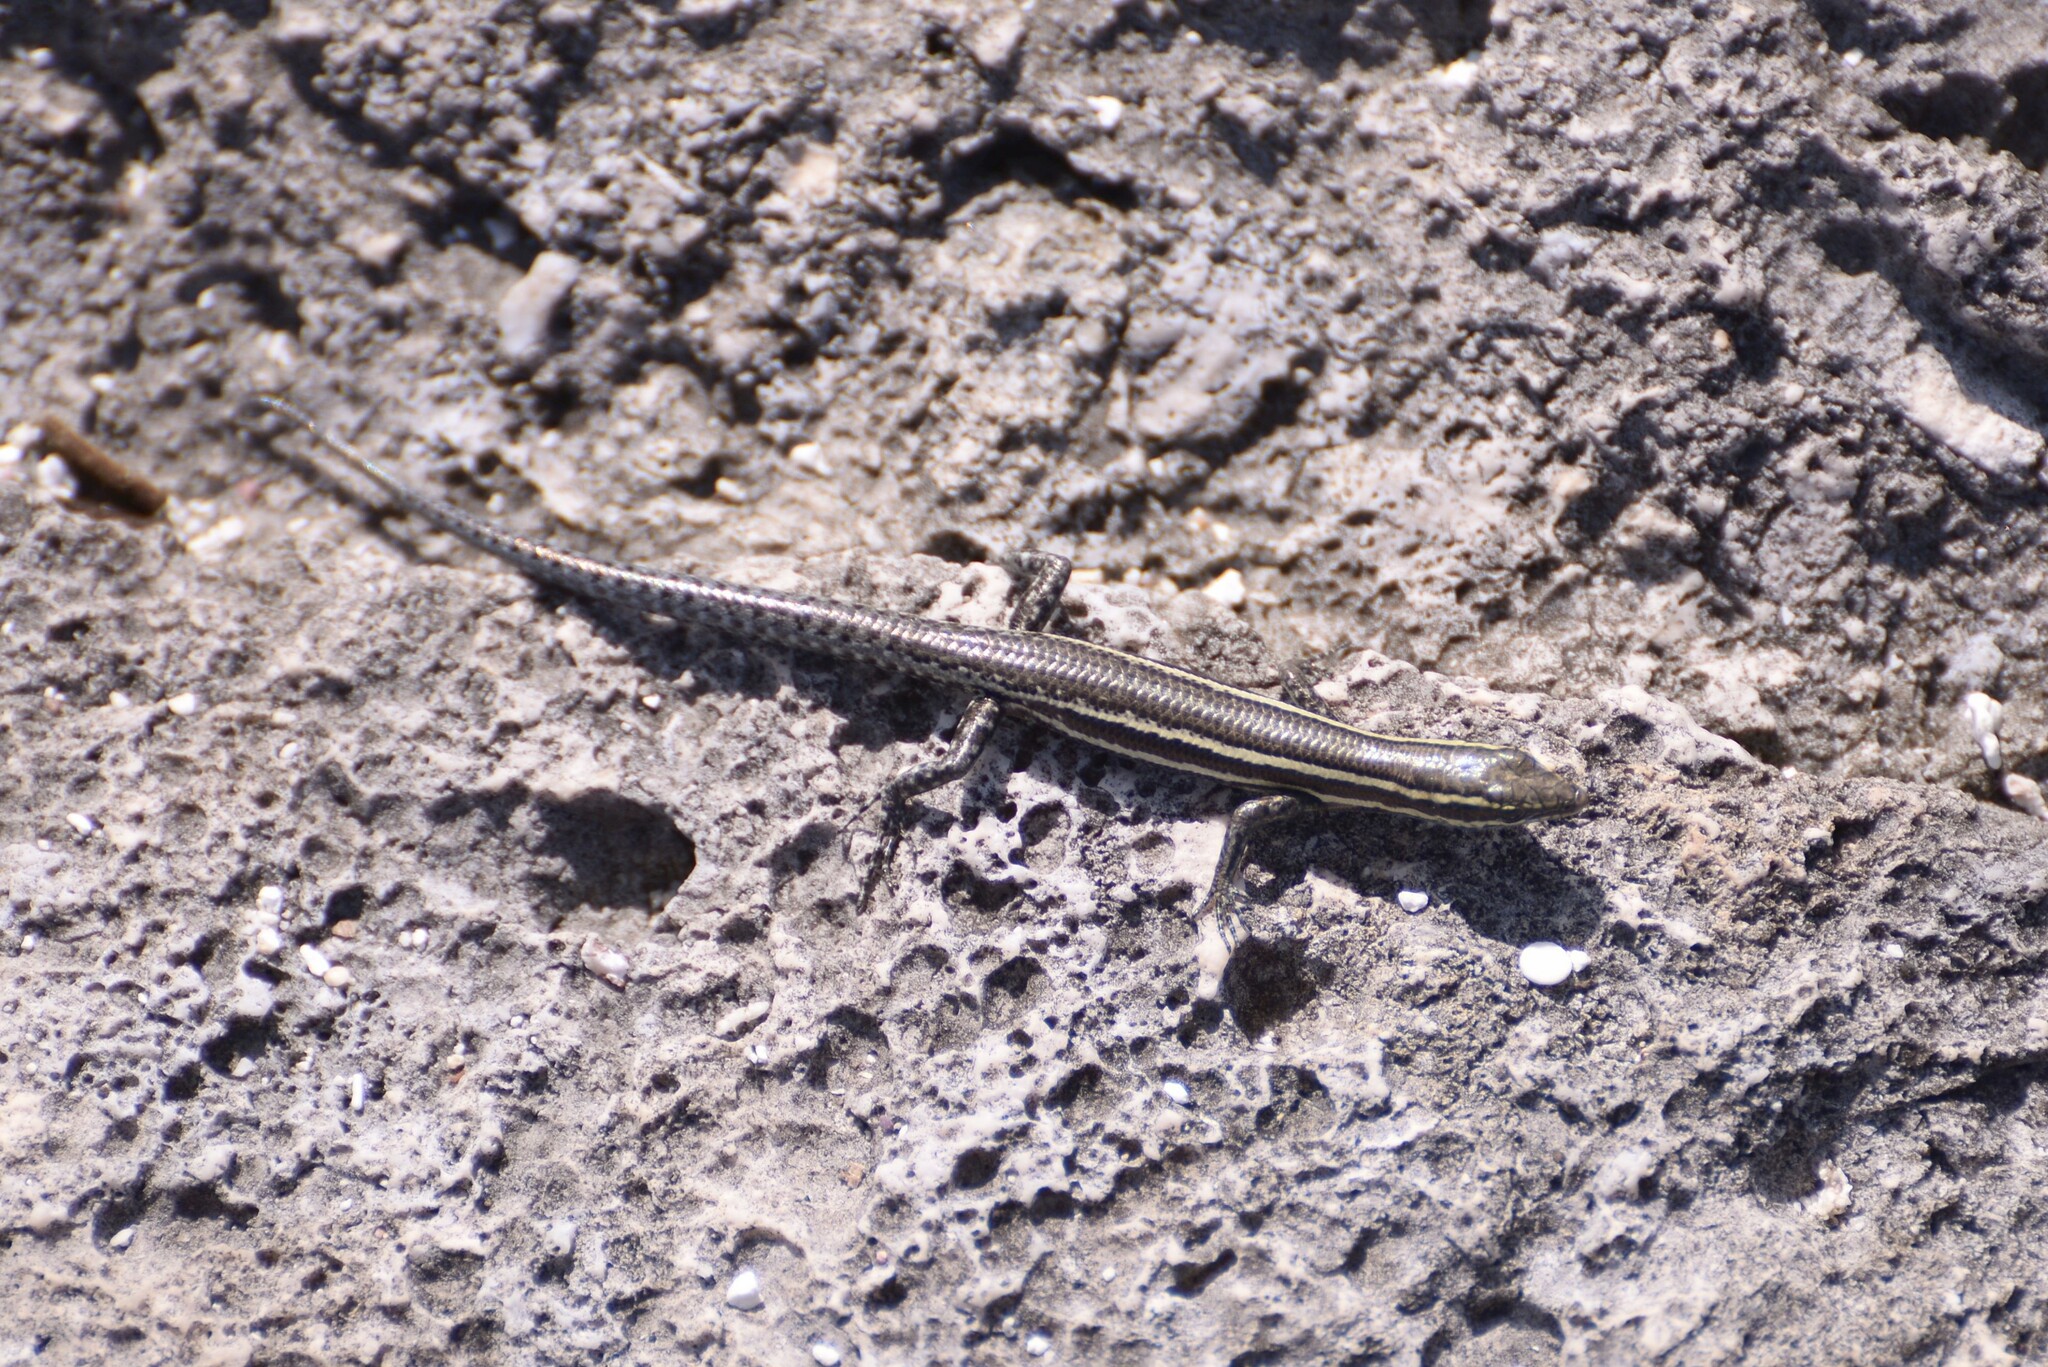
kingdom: Animalia
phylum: Chordata
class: Squamata
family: Scincidae
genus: Cryptoblepharus
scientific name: Cryptoblepharus novohebridicus
